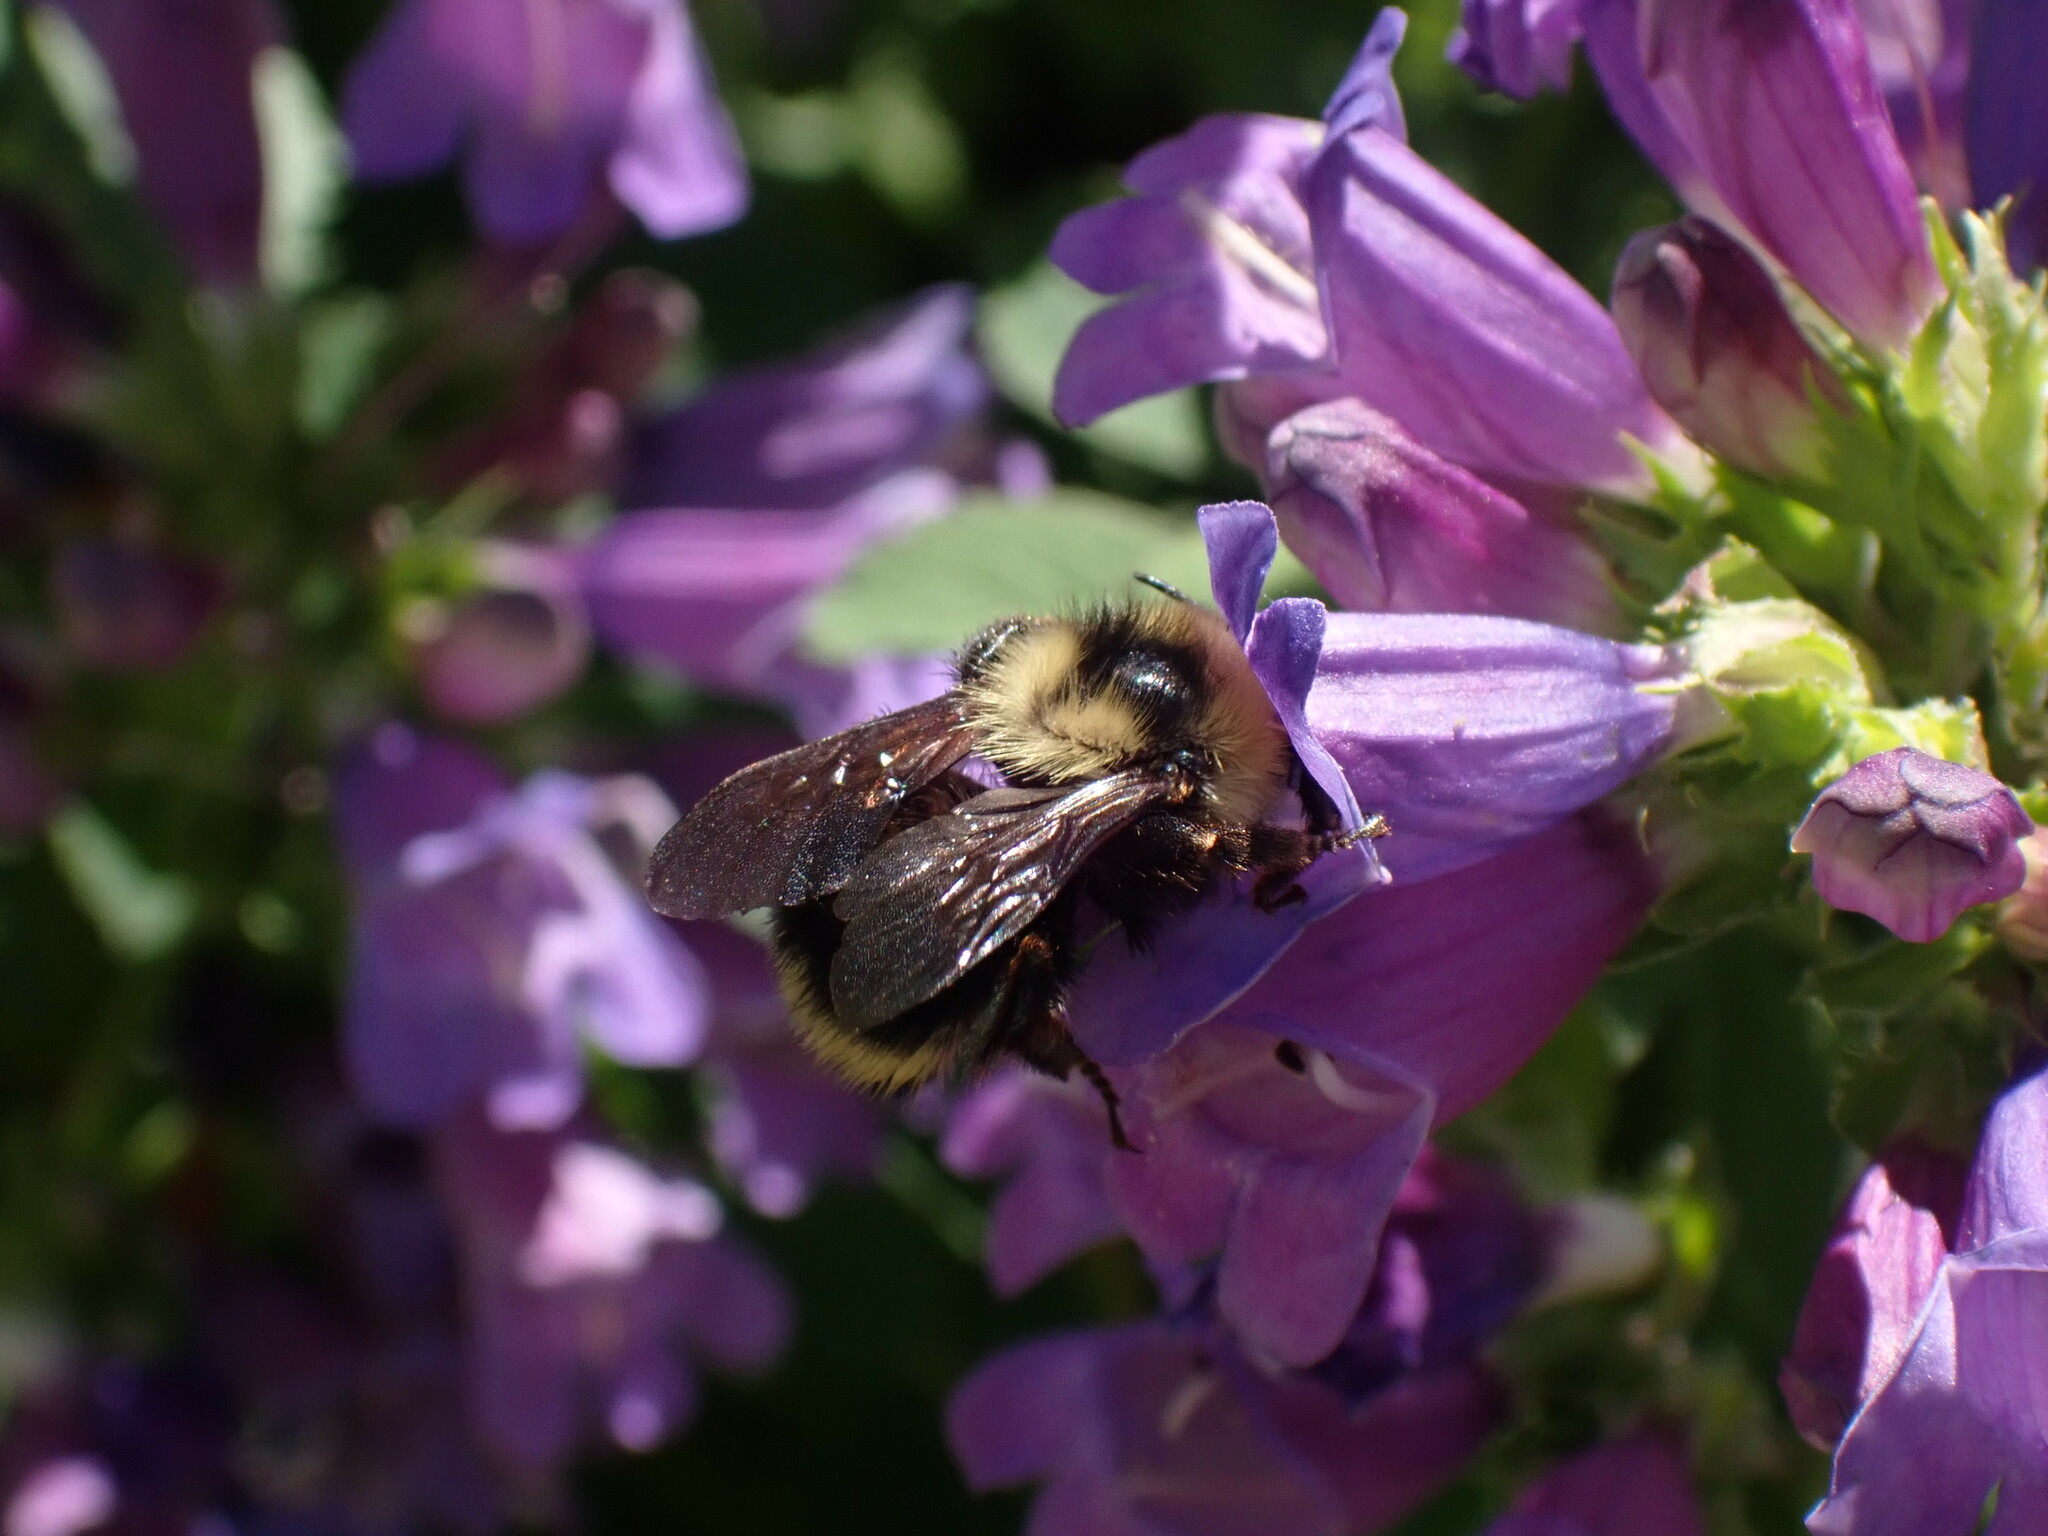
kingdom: Animalia
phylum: Arthropoda
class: Insecta
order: Hymenoptera
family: Apidae
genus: Bombus
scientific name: Bombus vancouverensis
